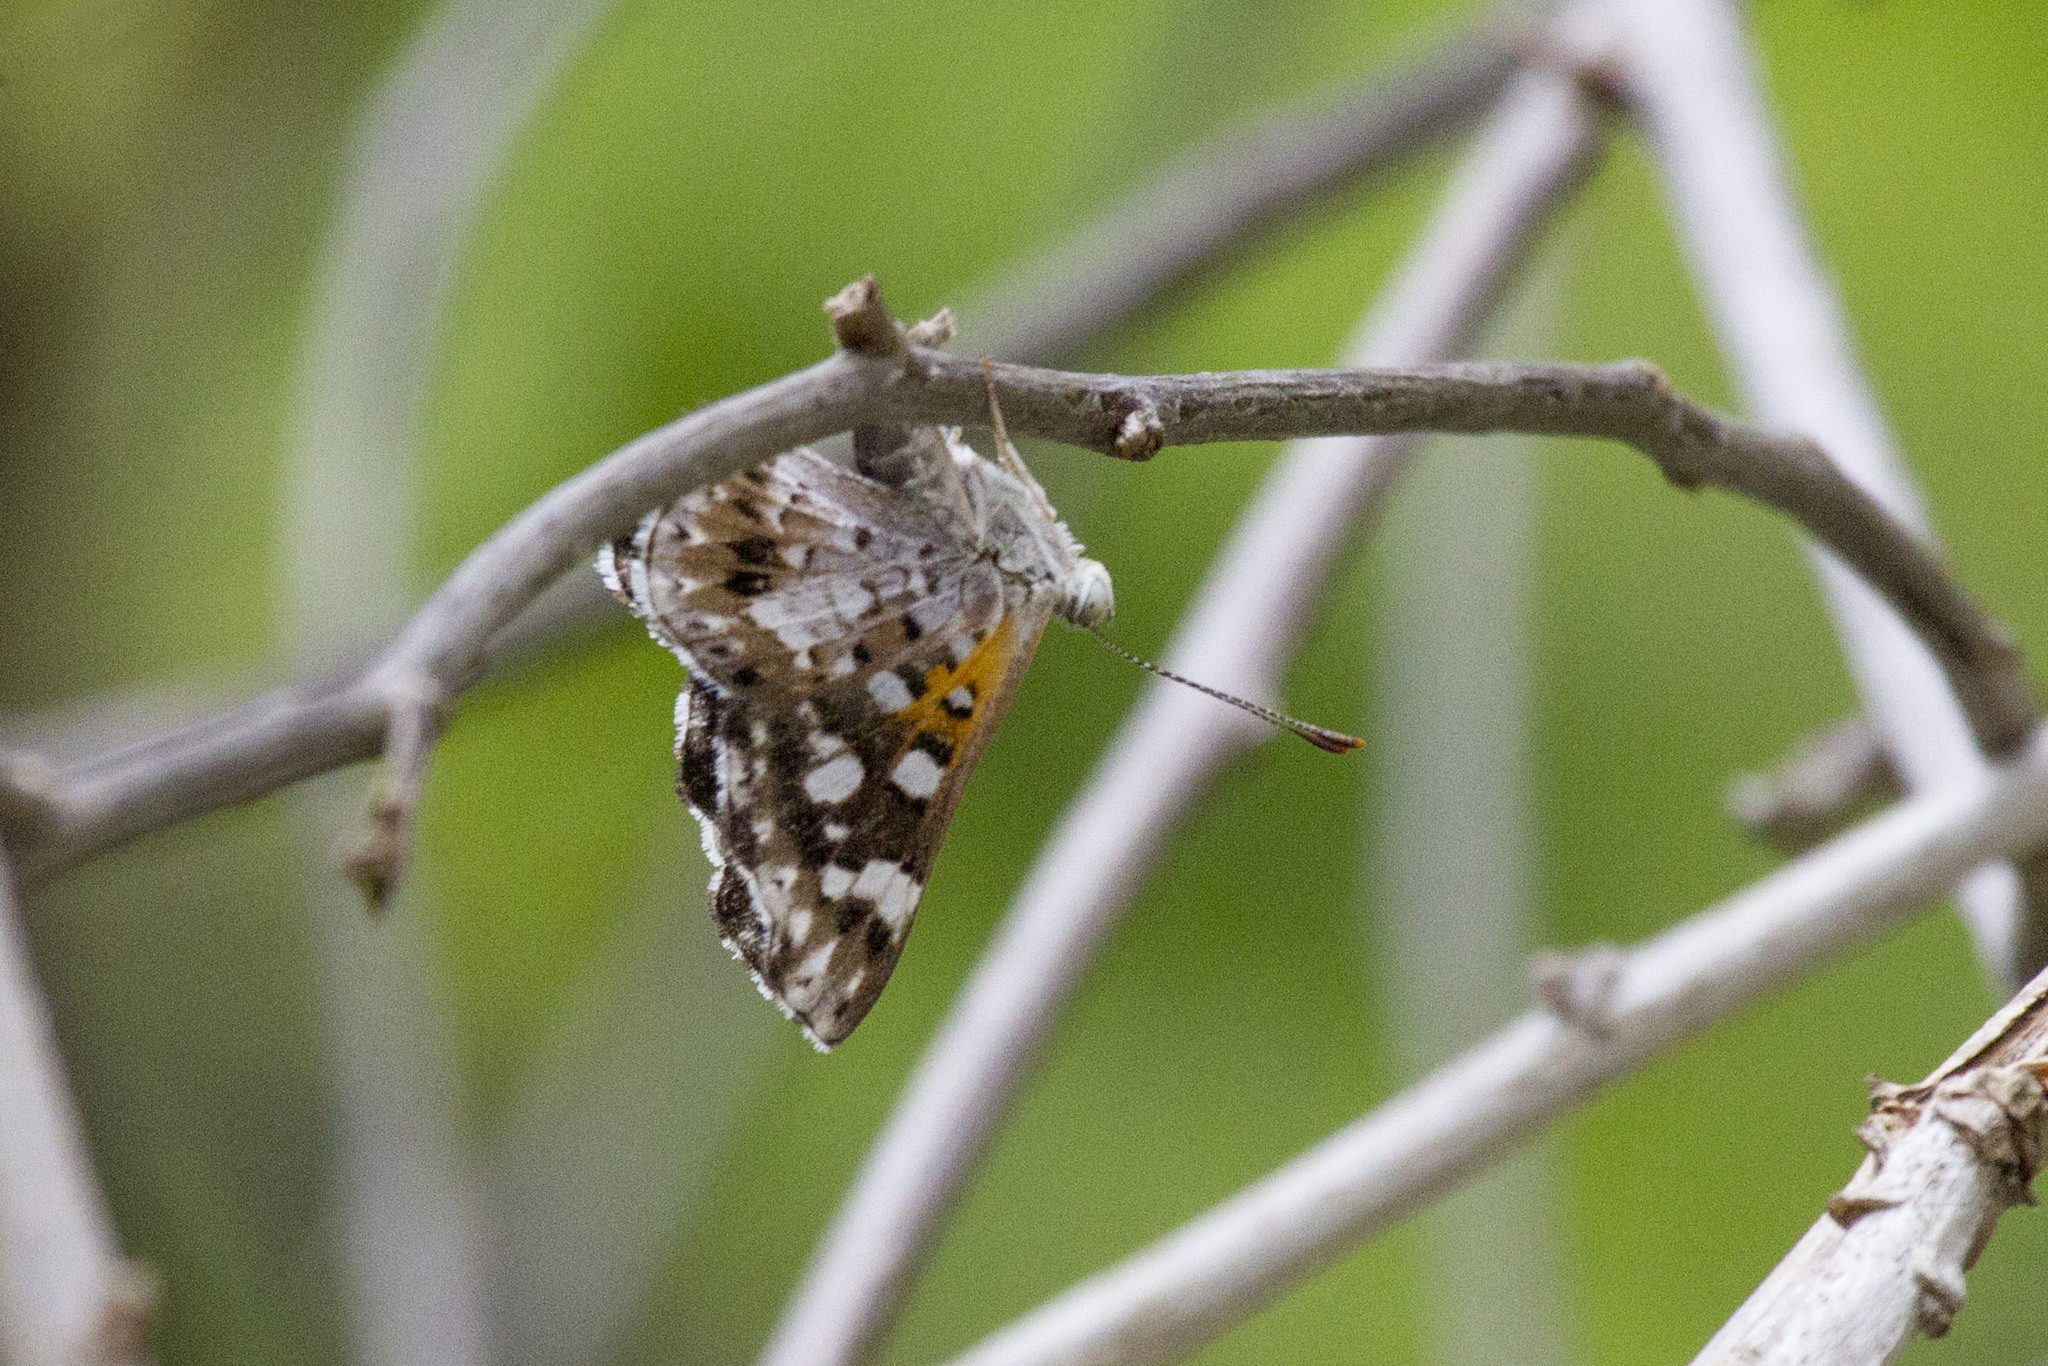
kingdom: Animalia
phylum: Arthropoda
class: Insecta
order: Lepidoptera
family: Riodinidae
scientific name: Riodinidae
